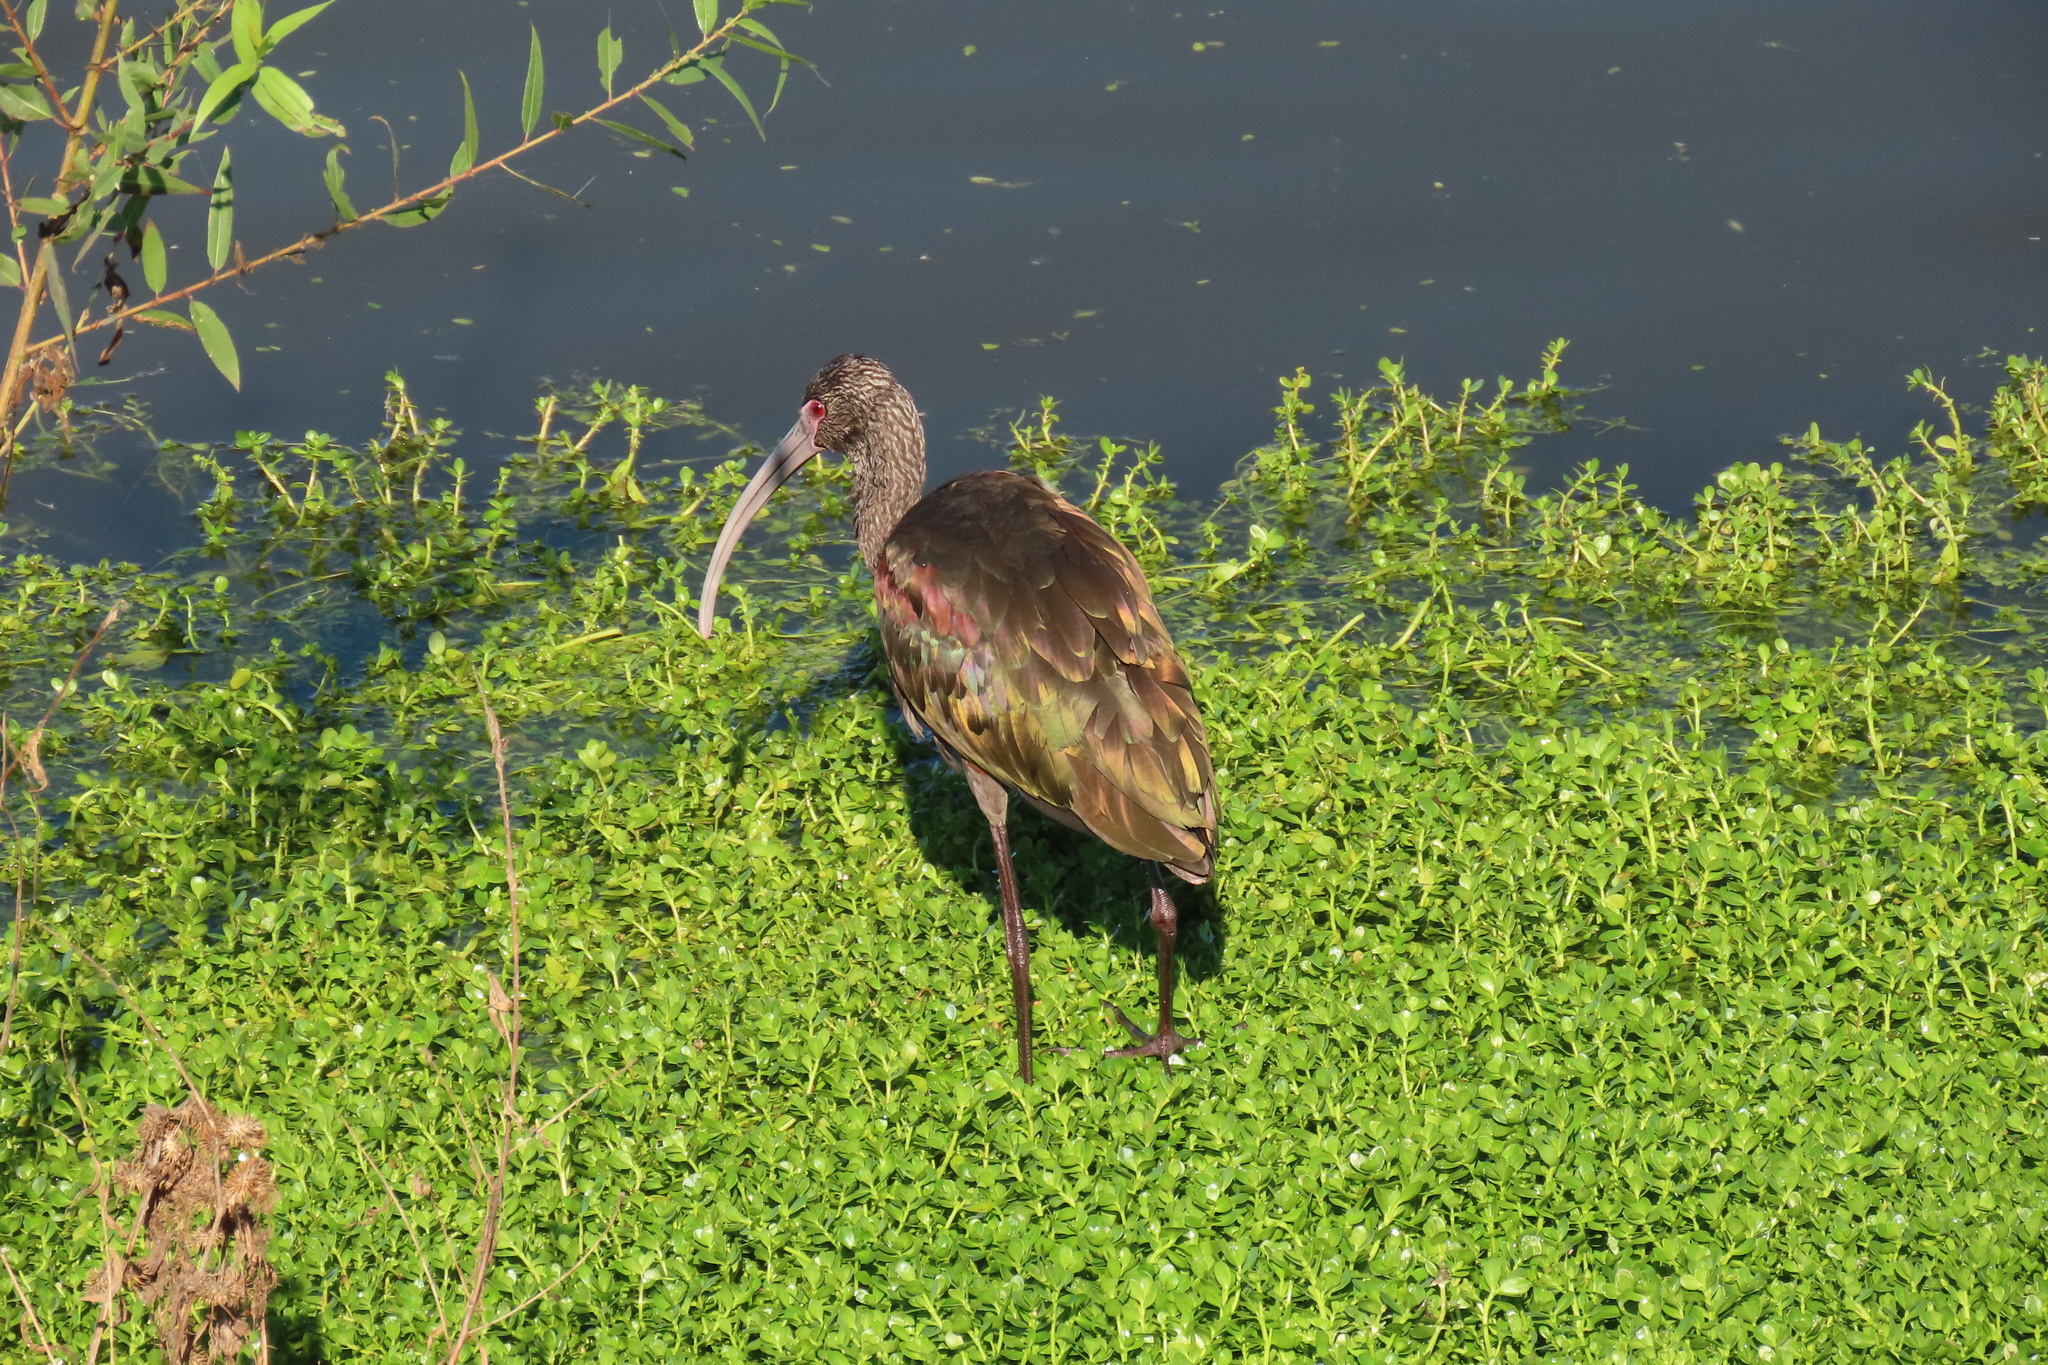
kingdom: Animalia
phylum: Chordata
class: Aves
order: Pelecaniformes
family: Threskiornithidae
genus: Plegadis
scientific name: Plegadis chihi
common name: White-faced ibis
